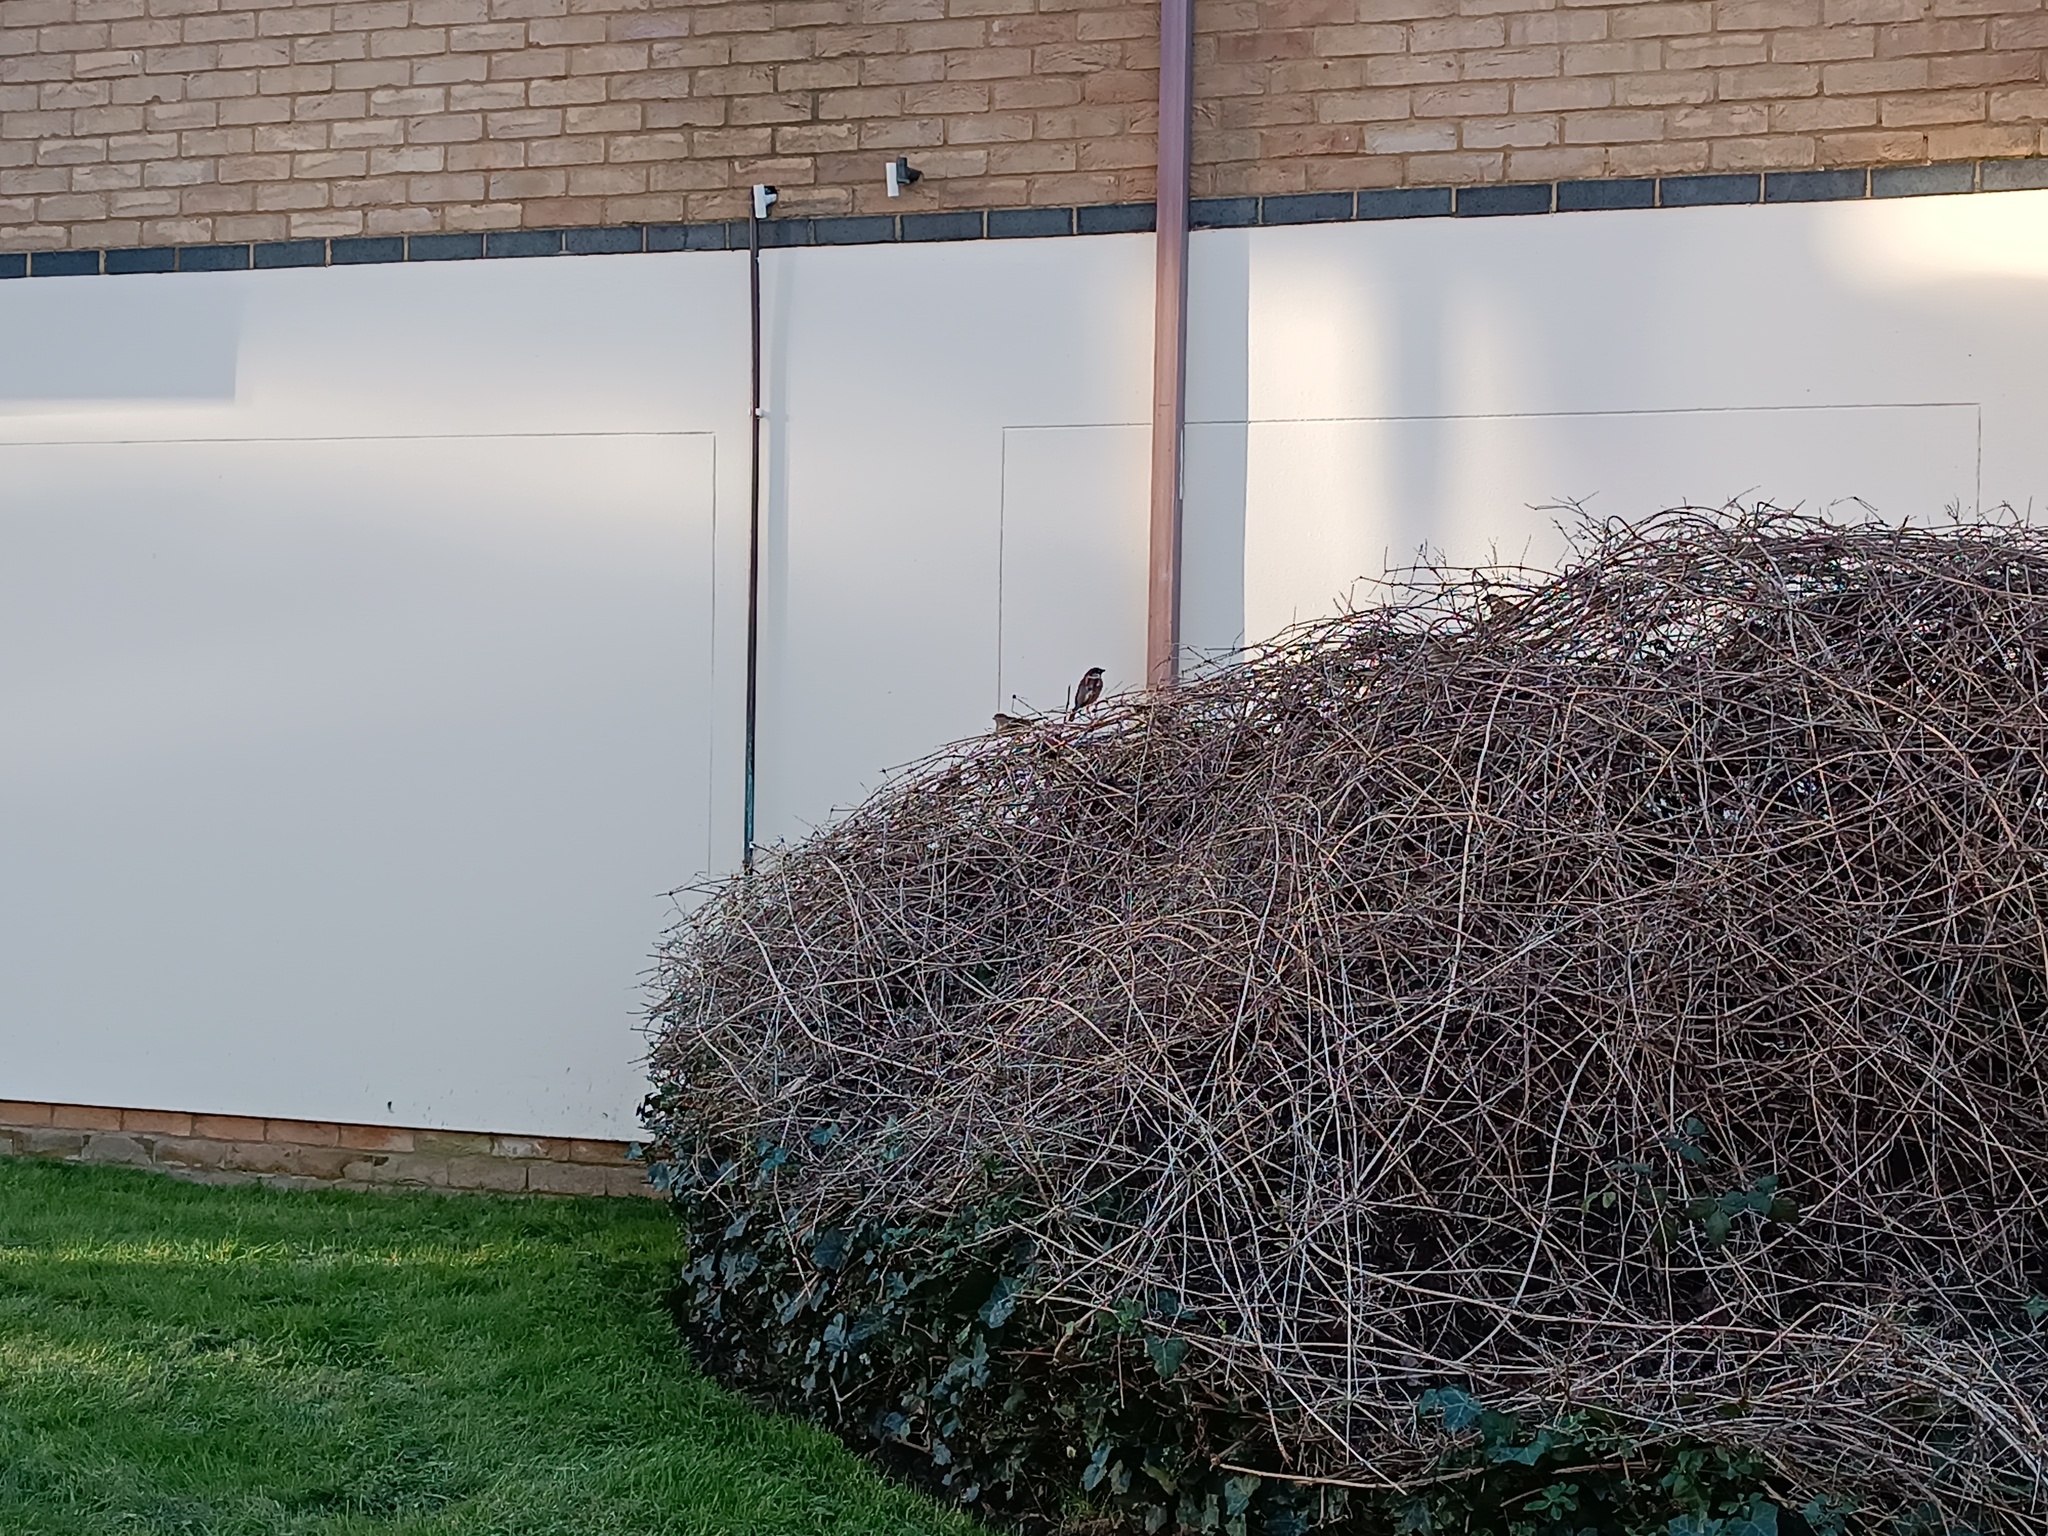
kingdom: Animalia
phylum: Chordata
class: Aves
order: Passeriformes
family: Passeridae
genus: Passer
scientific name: Passer domesticus
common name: House sparrow
